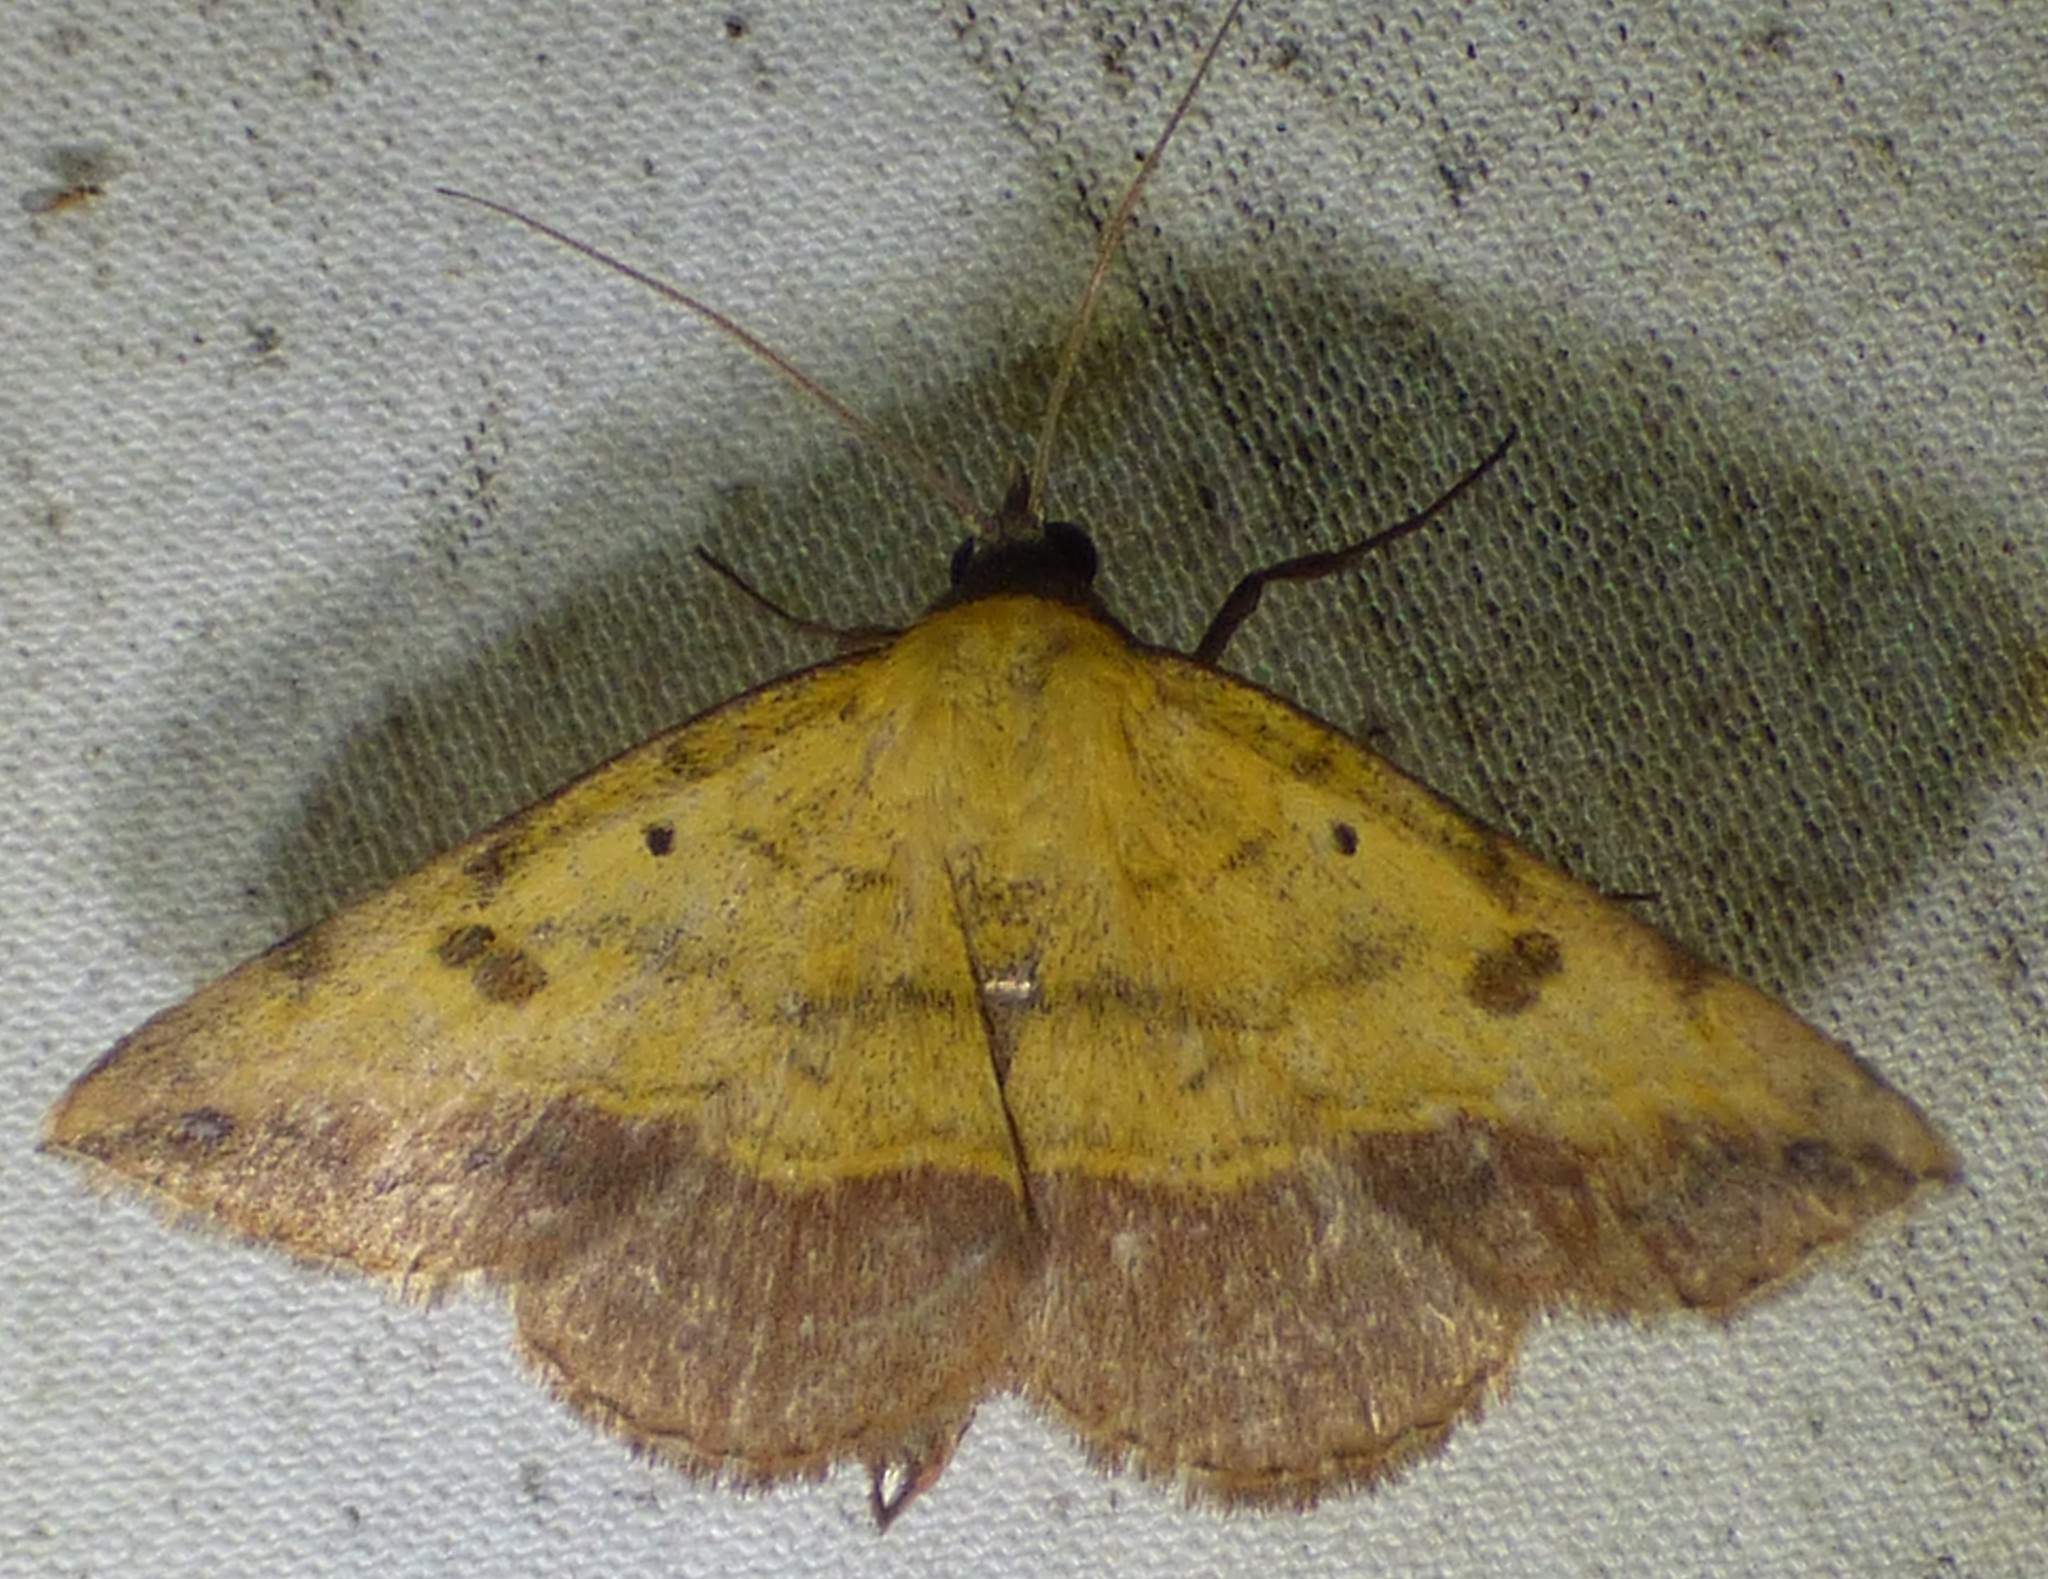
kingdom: Animalia
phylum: Arthropoda
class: Insecta
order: Lepidoptera
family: Erebidae
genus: Hemeroplanis
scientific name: Hemeroplanis scopulepes
